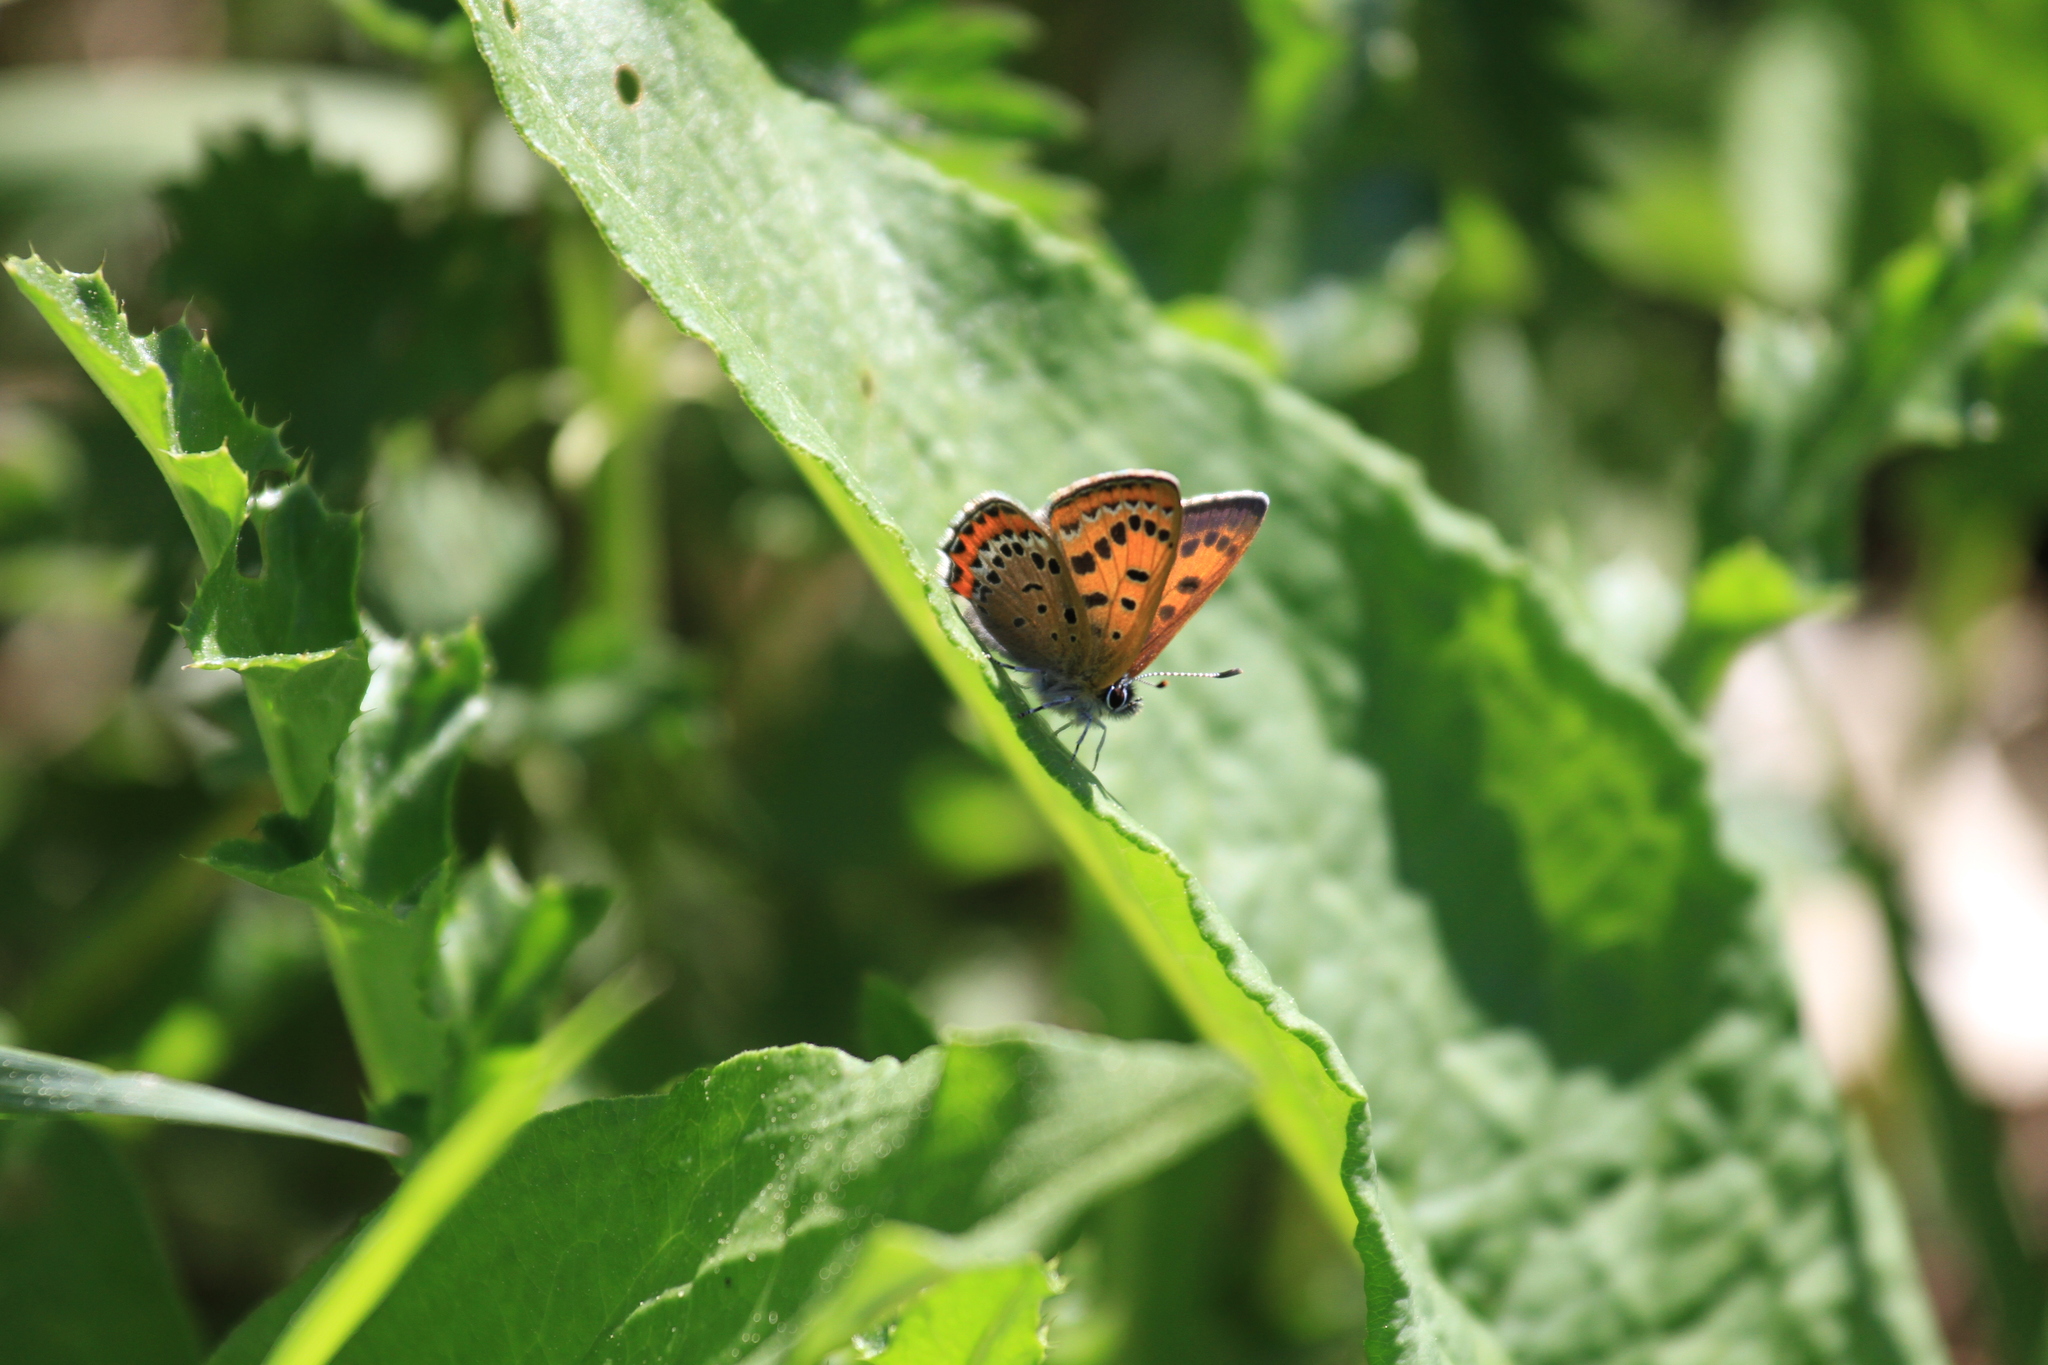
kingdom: Animalia
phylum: Arthropoda
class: Insecta
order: Lepidoptera
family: Lycaenidae
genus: Helleia
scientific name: Helleia helle
